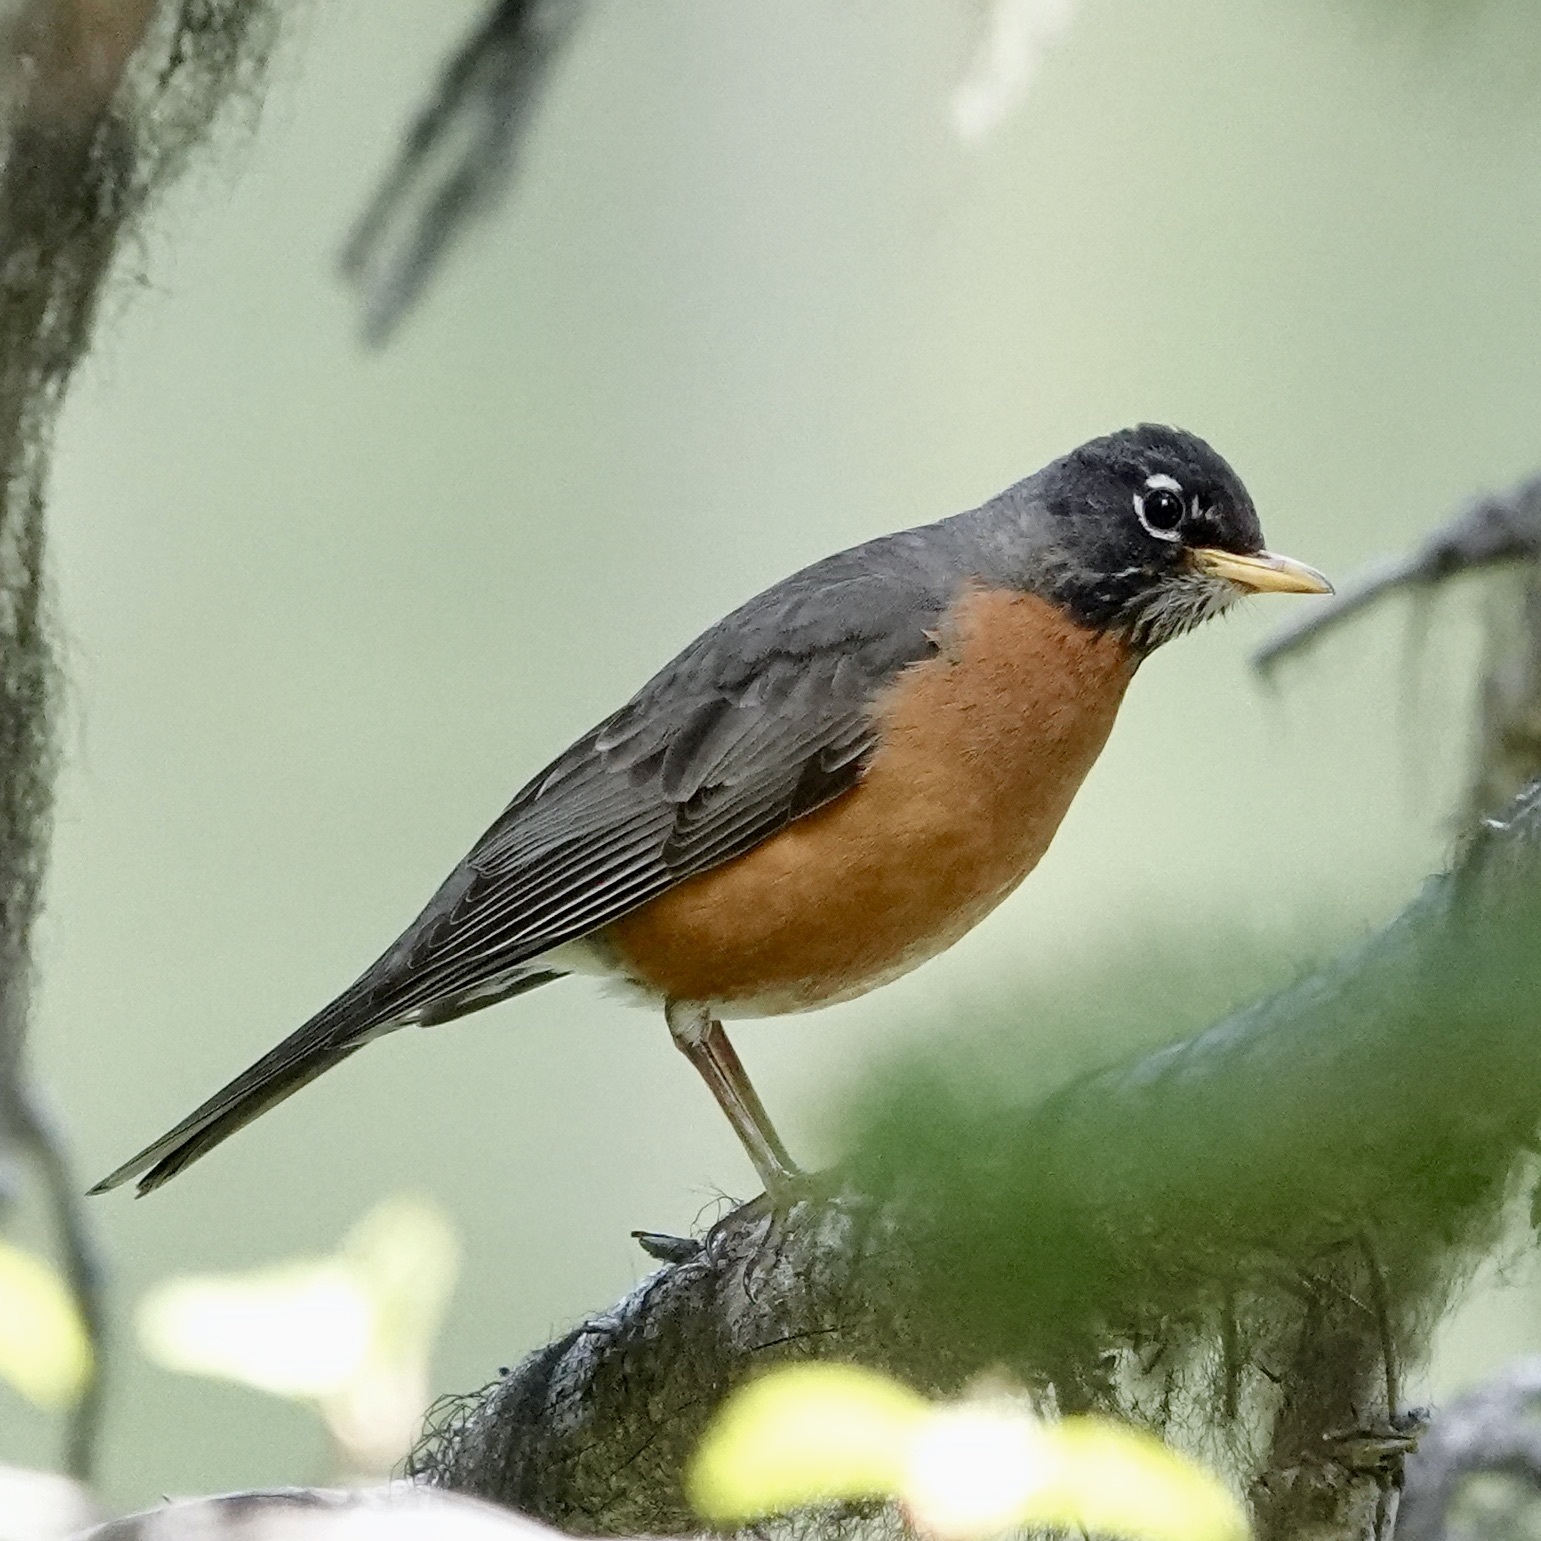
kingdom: Animalia
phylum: Chordata
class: Aves
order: Passeriformes
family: Turdidae
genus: Turdus
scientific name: Turdus migratorius
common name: American robin
